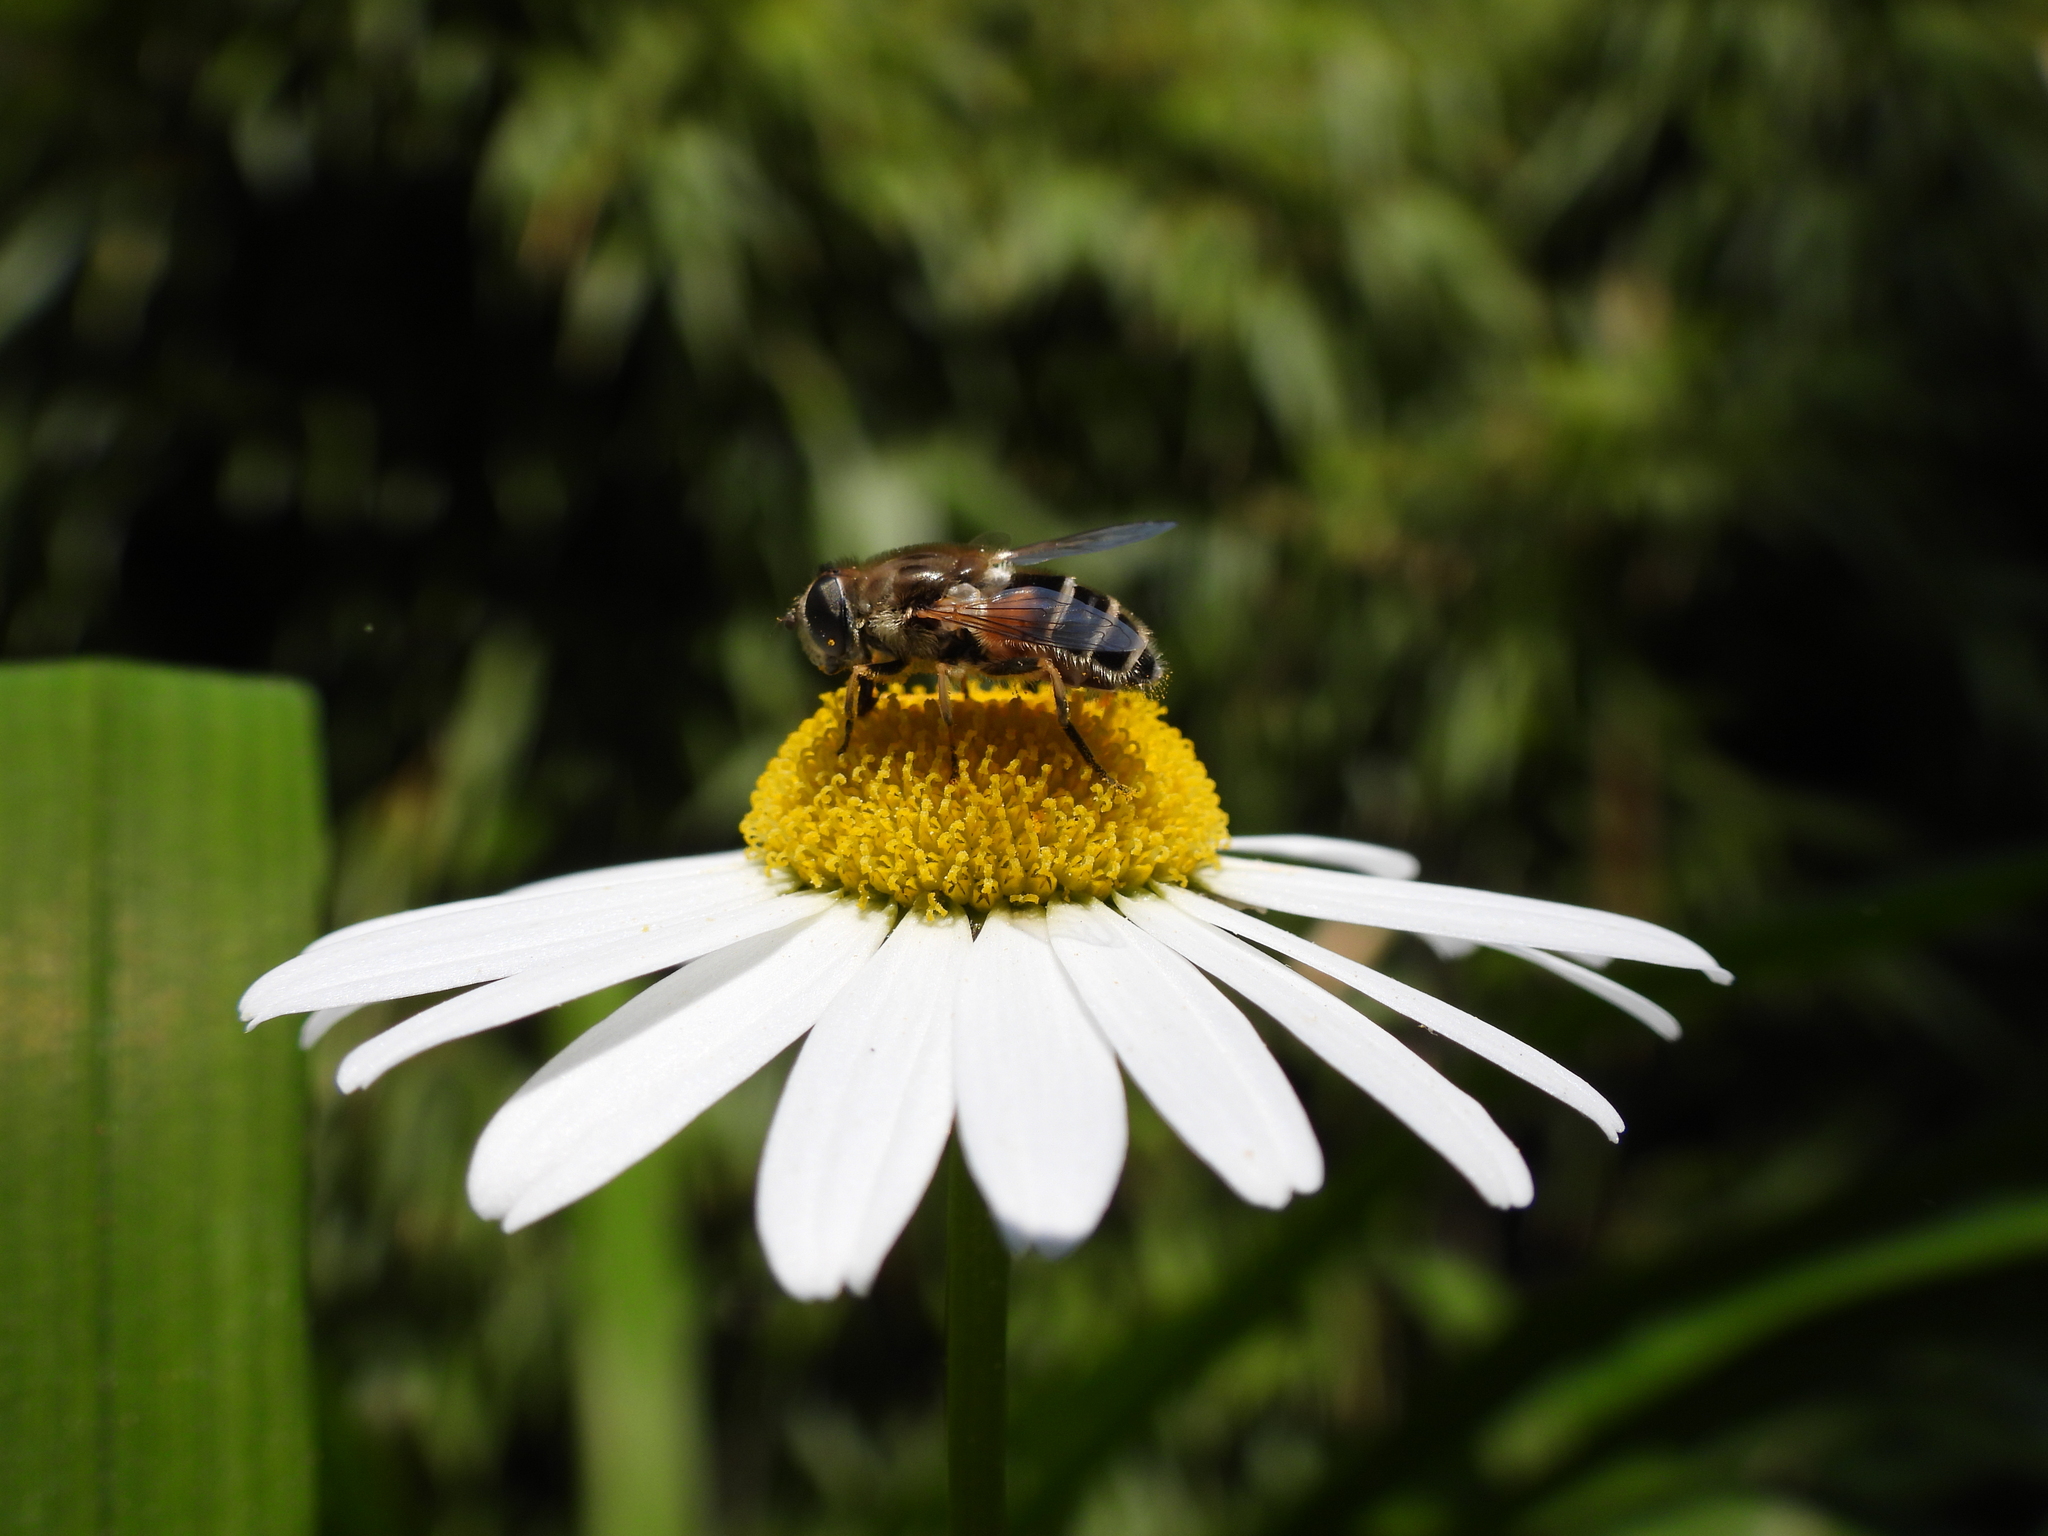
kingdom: Animalia
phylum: Arthropoda
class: Insecta
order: Diptera
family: Syrphidae
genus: Eristalis
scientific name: Eristalis arbustorum
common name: Hover fly
